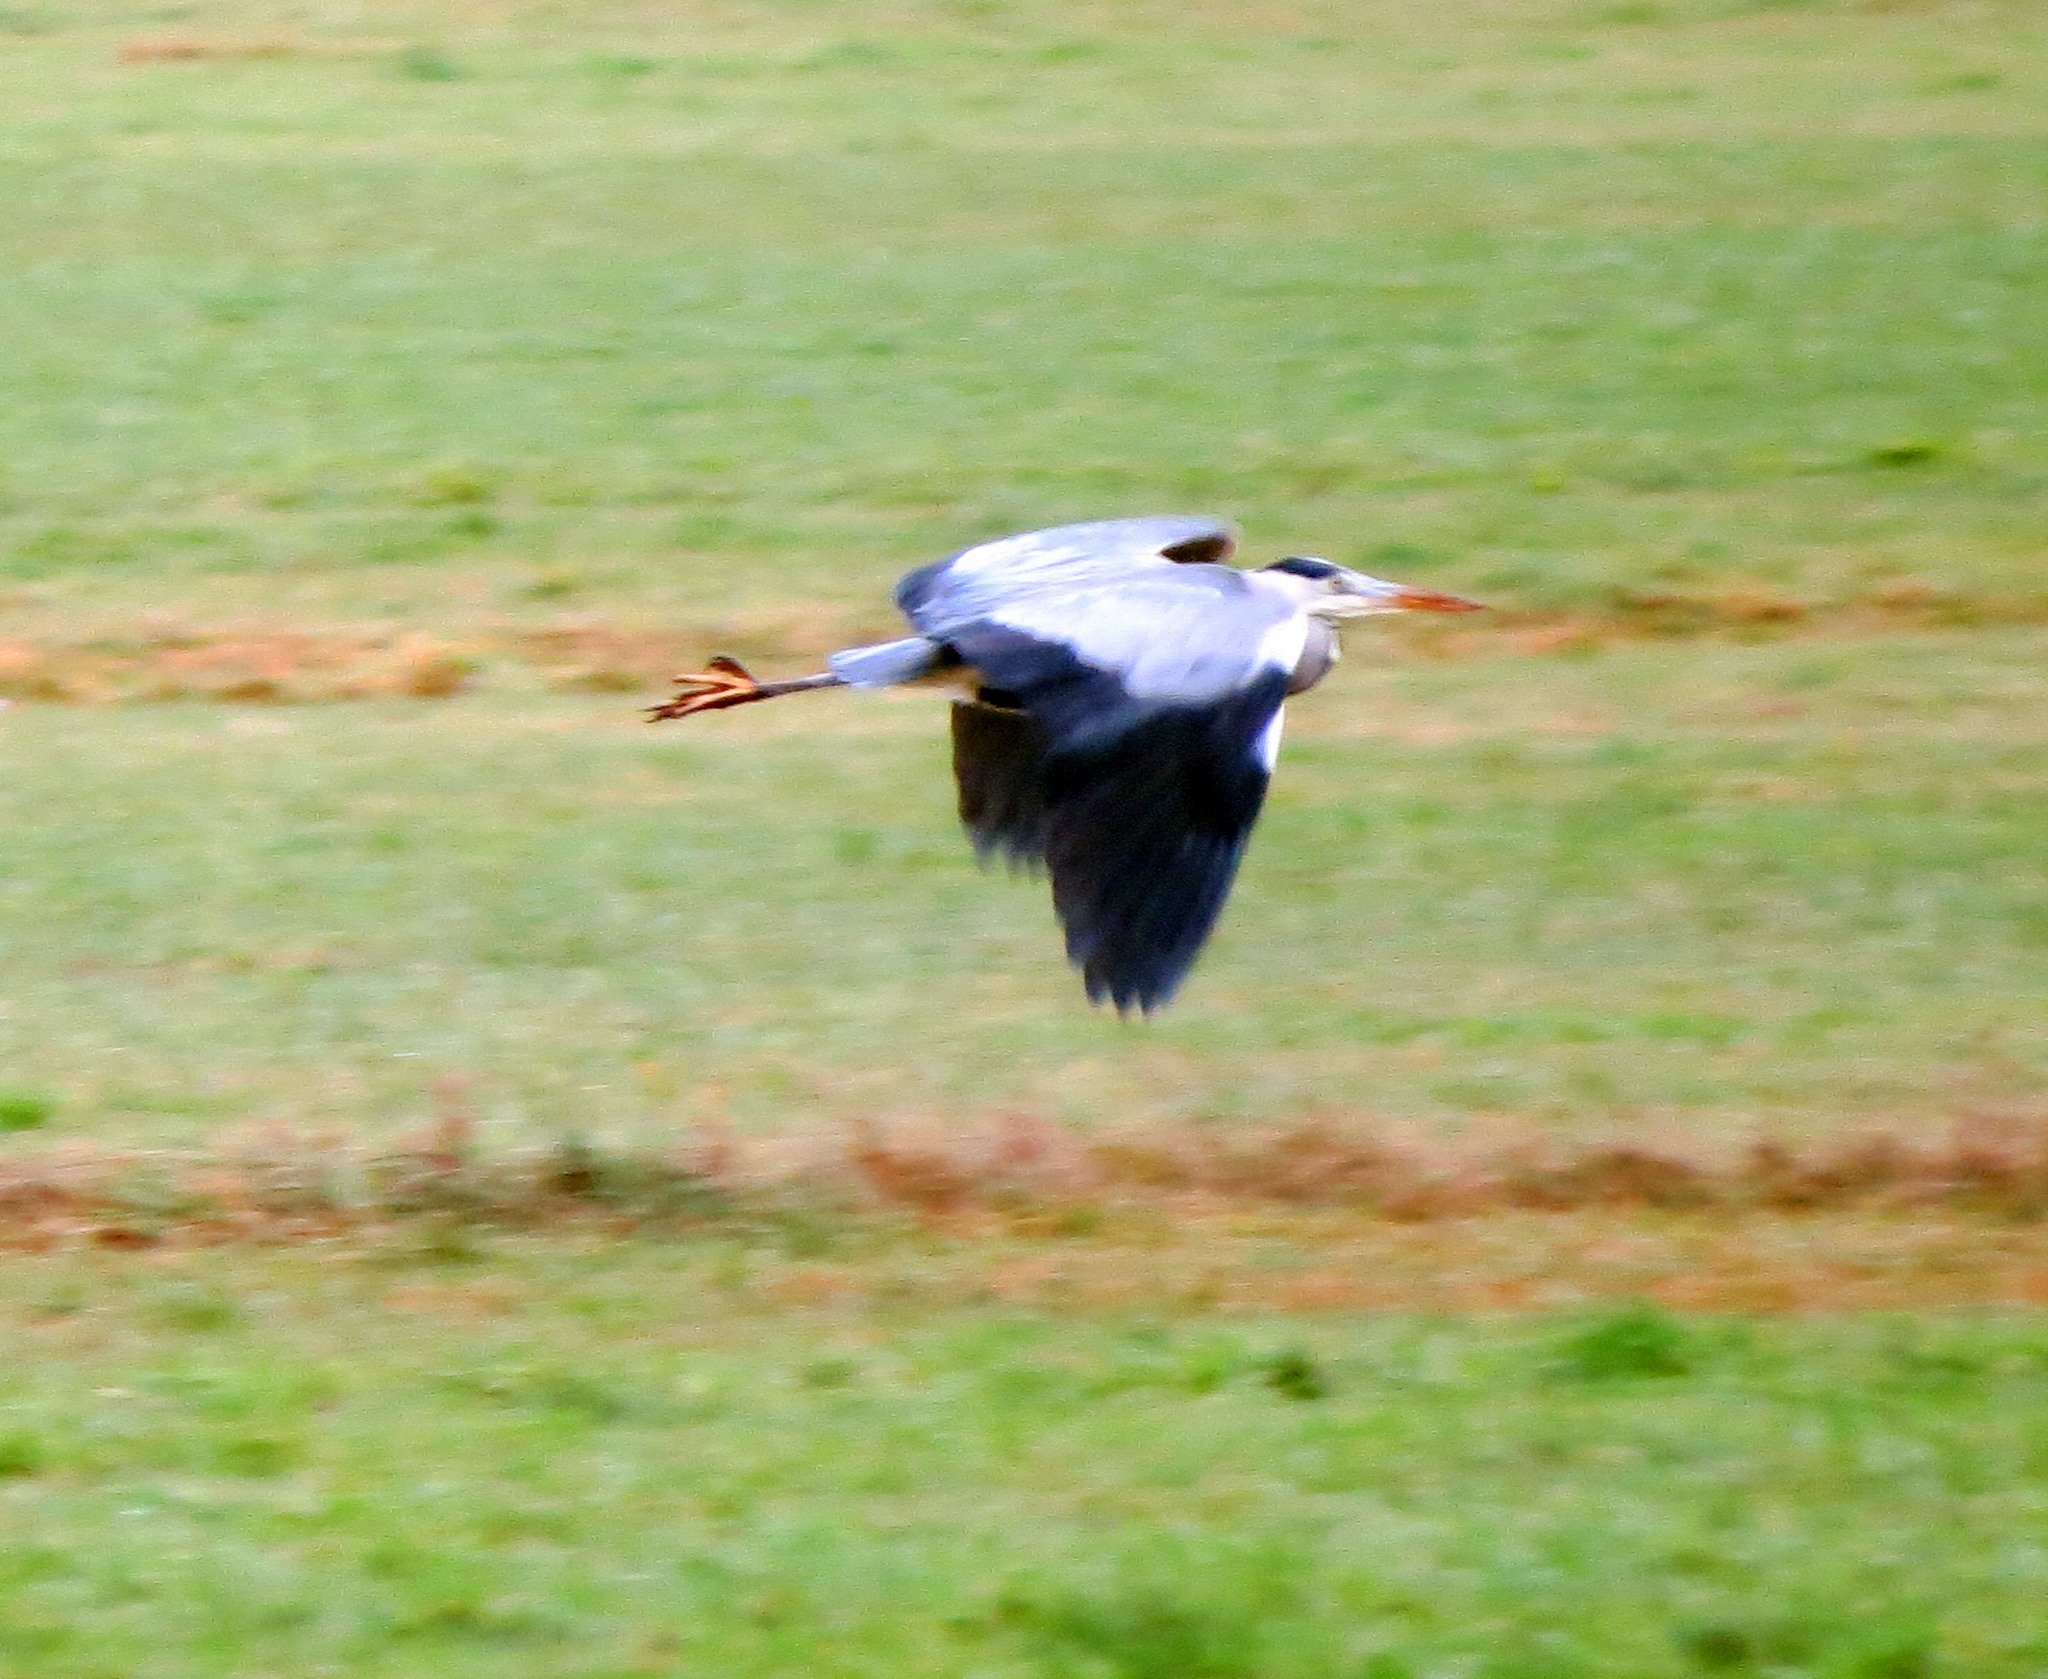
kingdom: Animalia
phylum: Chordata
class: Aves
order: Pelecaniformes
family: Ardeidae
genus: Ardea
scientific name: Ardea cinerea
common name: Grey heron
